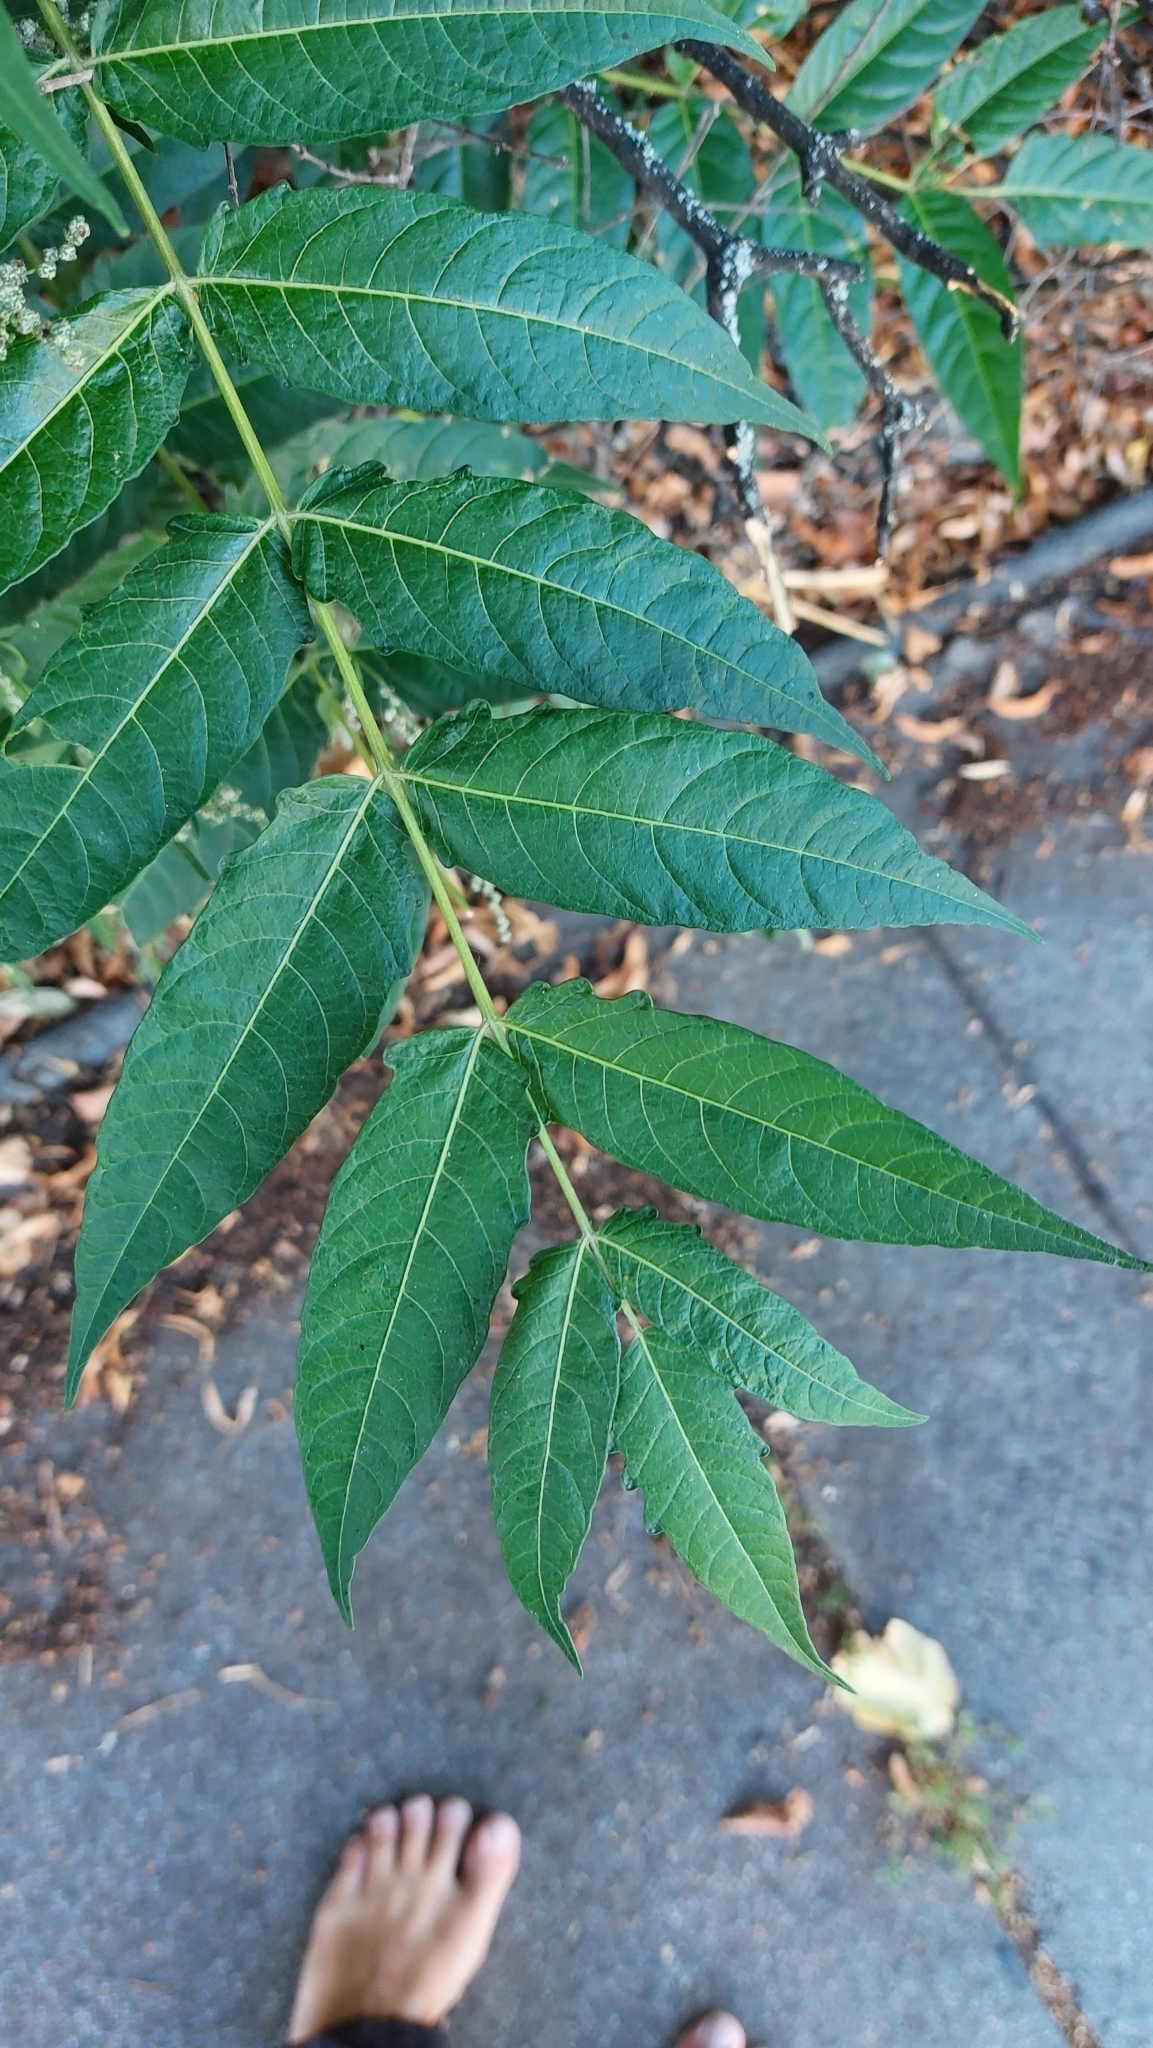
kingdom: Plantae
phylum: Tracheophyta
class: Magnoliopsida
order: Sapindales
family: Simaroubaceae
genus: Ailanthus
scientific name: Ailanthus altissima
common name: Tree-of-heaven
